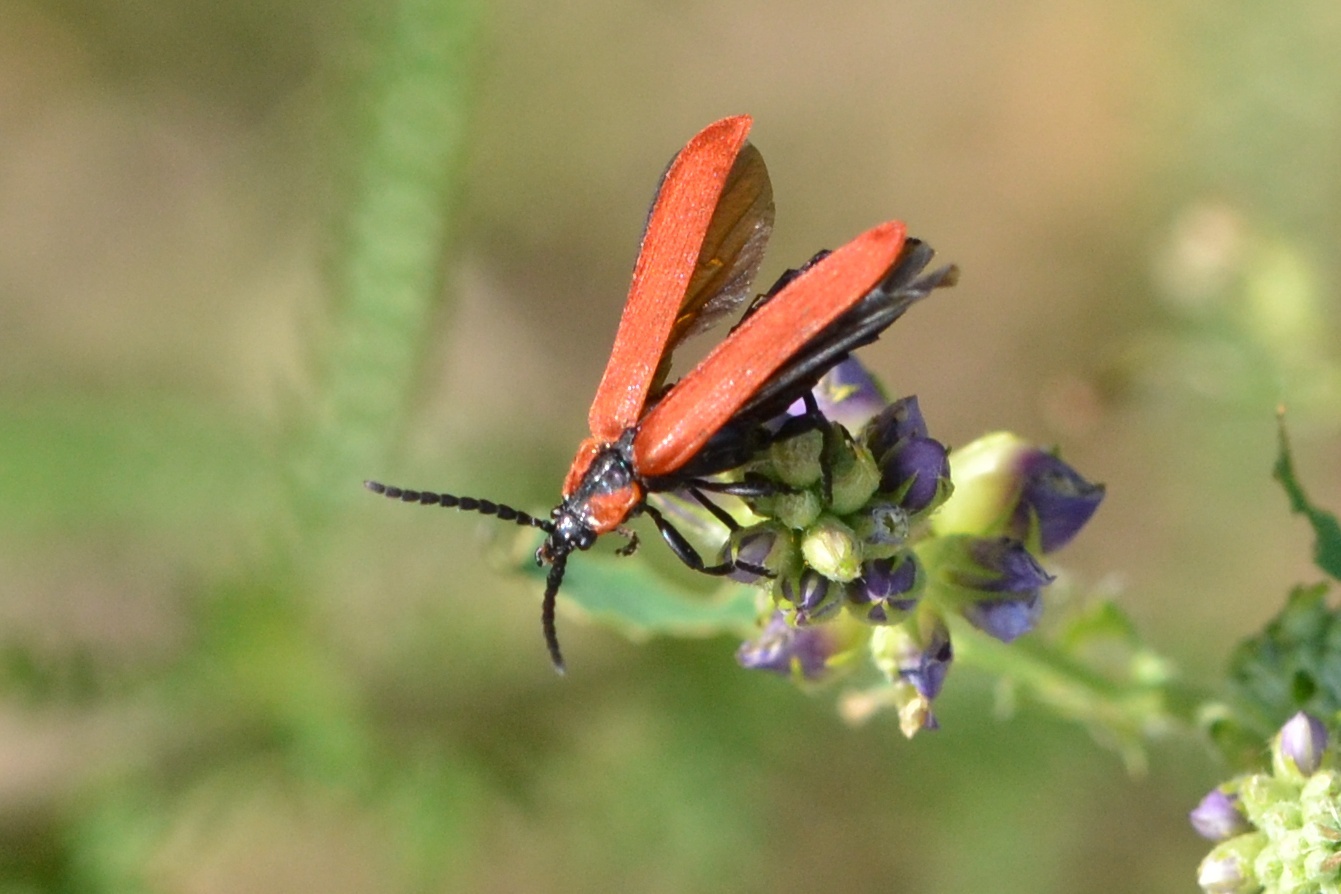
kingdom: Animalia
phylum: Arthropoda
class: Insecta
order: Coleoptera
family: Lycidae
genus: Lygistopterus
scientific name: Lygistopterus sanguineus
